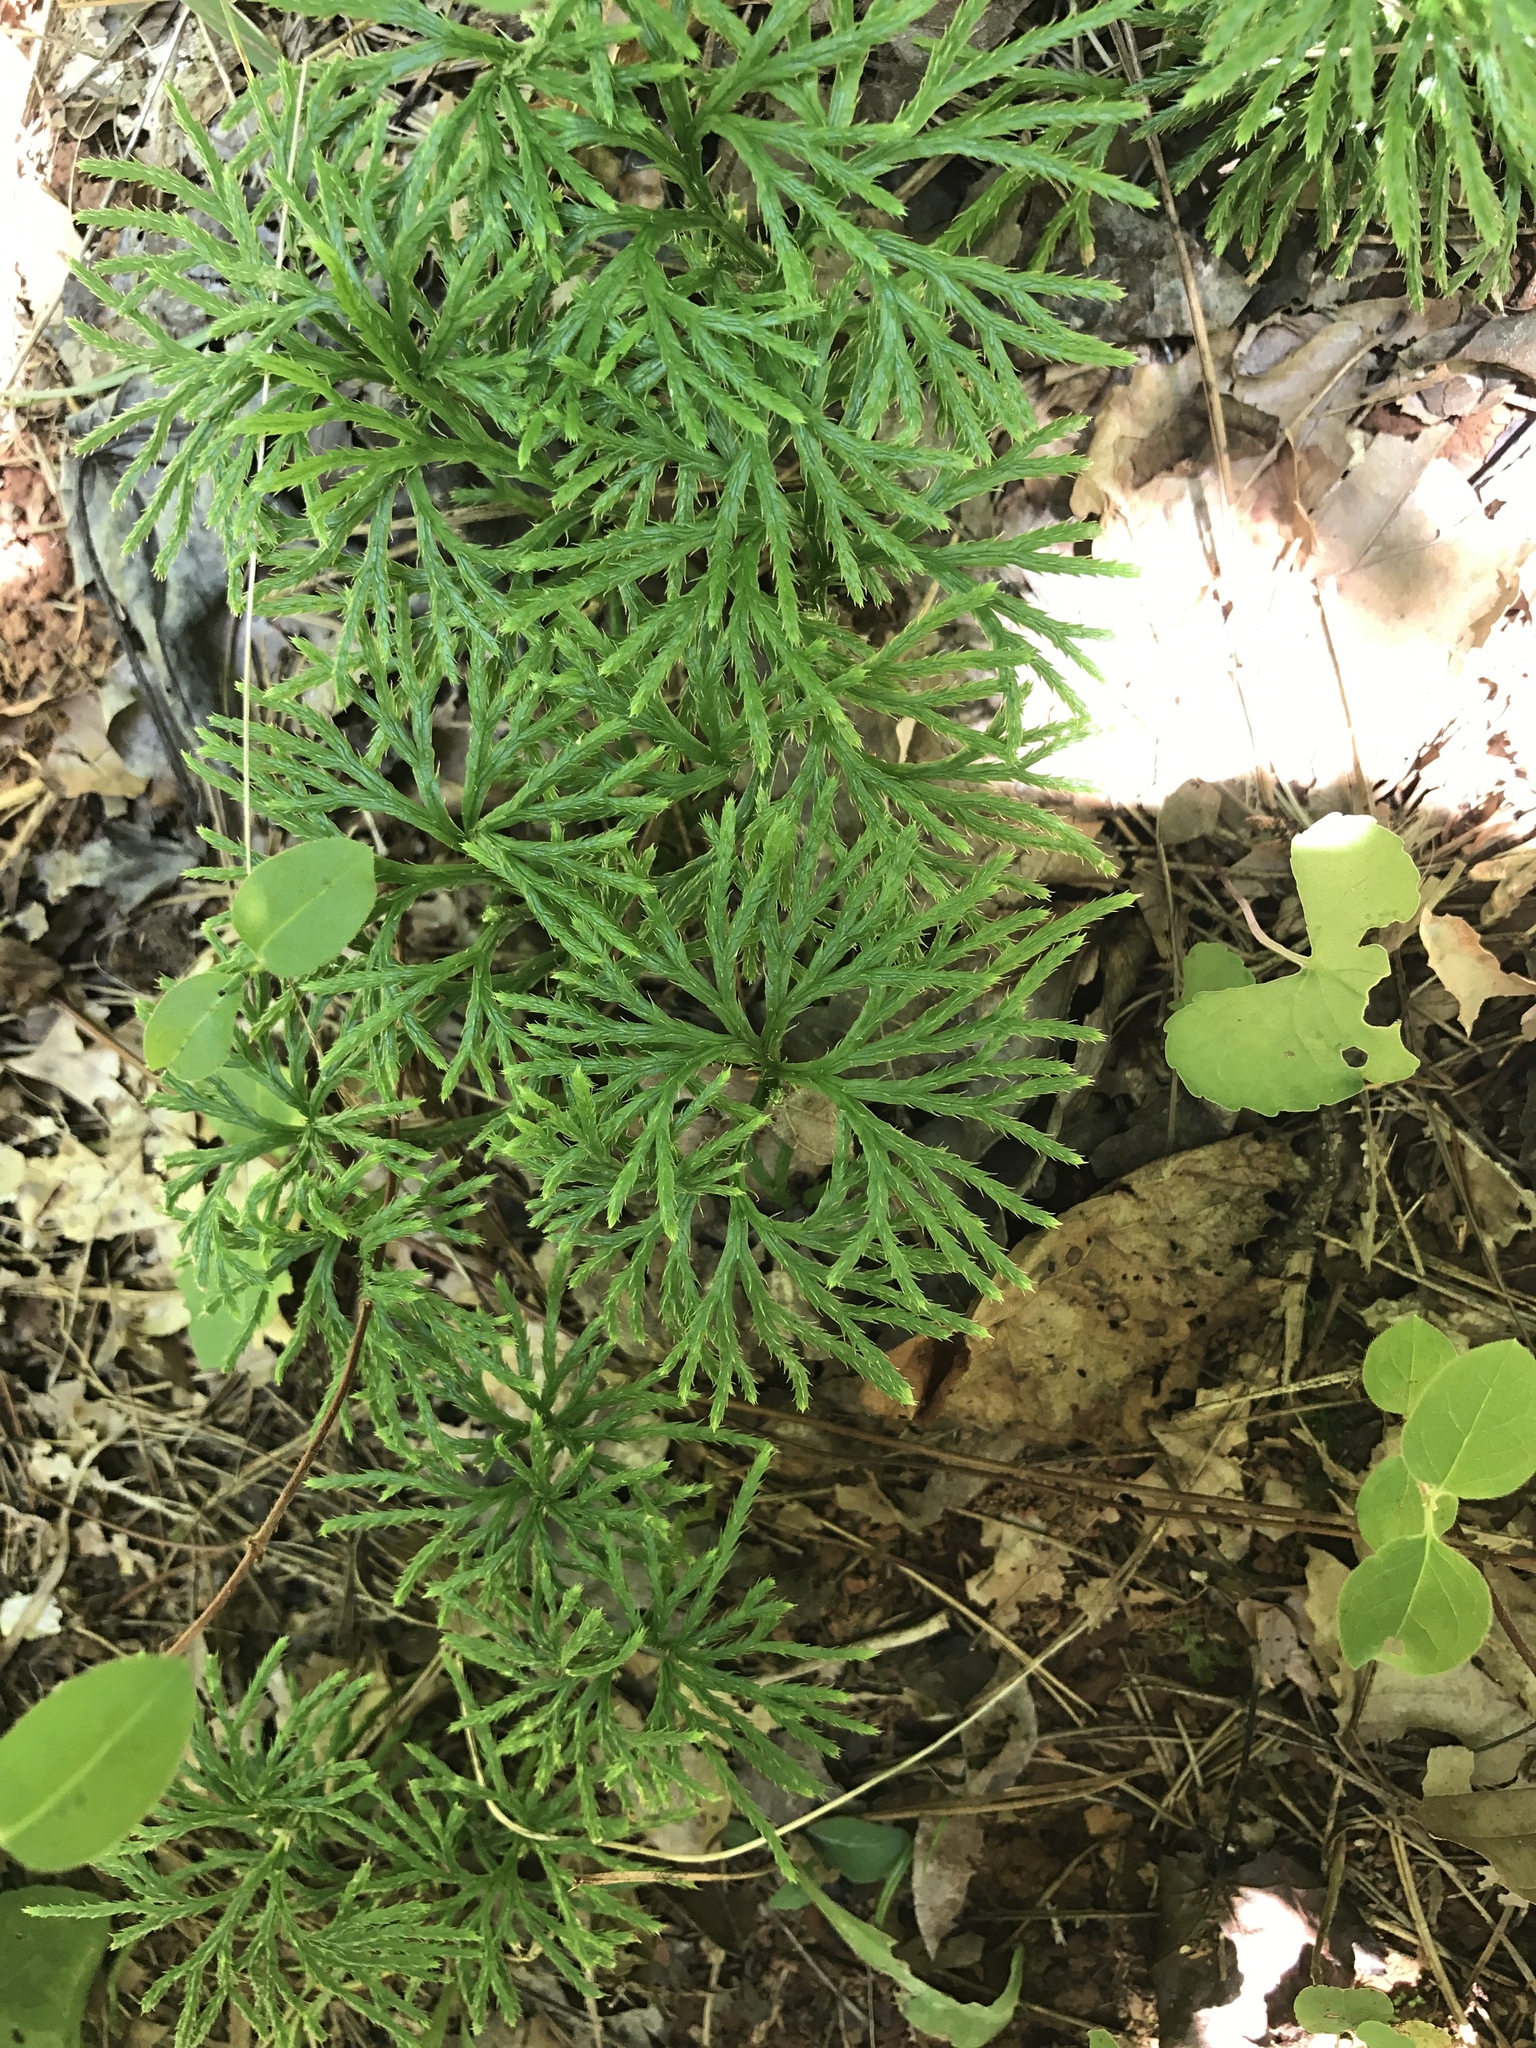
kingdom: Plantae
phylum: Tracheophyta
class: Lycopodiopsida
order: Lycopodiales
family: Lycopodiaceae
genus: Diphasiastrum
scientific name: Diphasiastrum digitatum
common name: Southern running-pine
